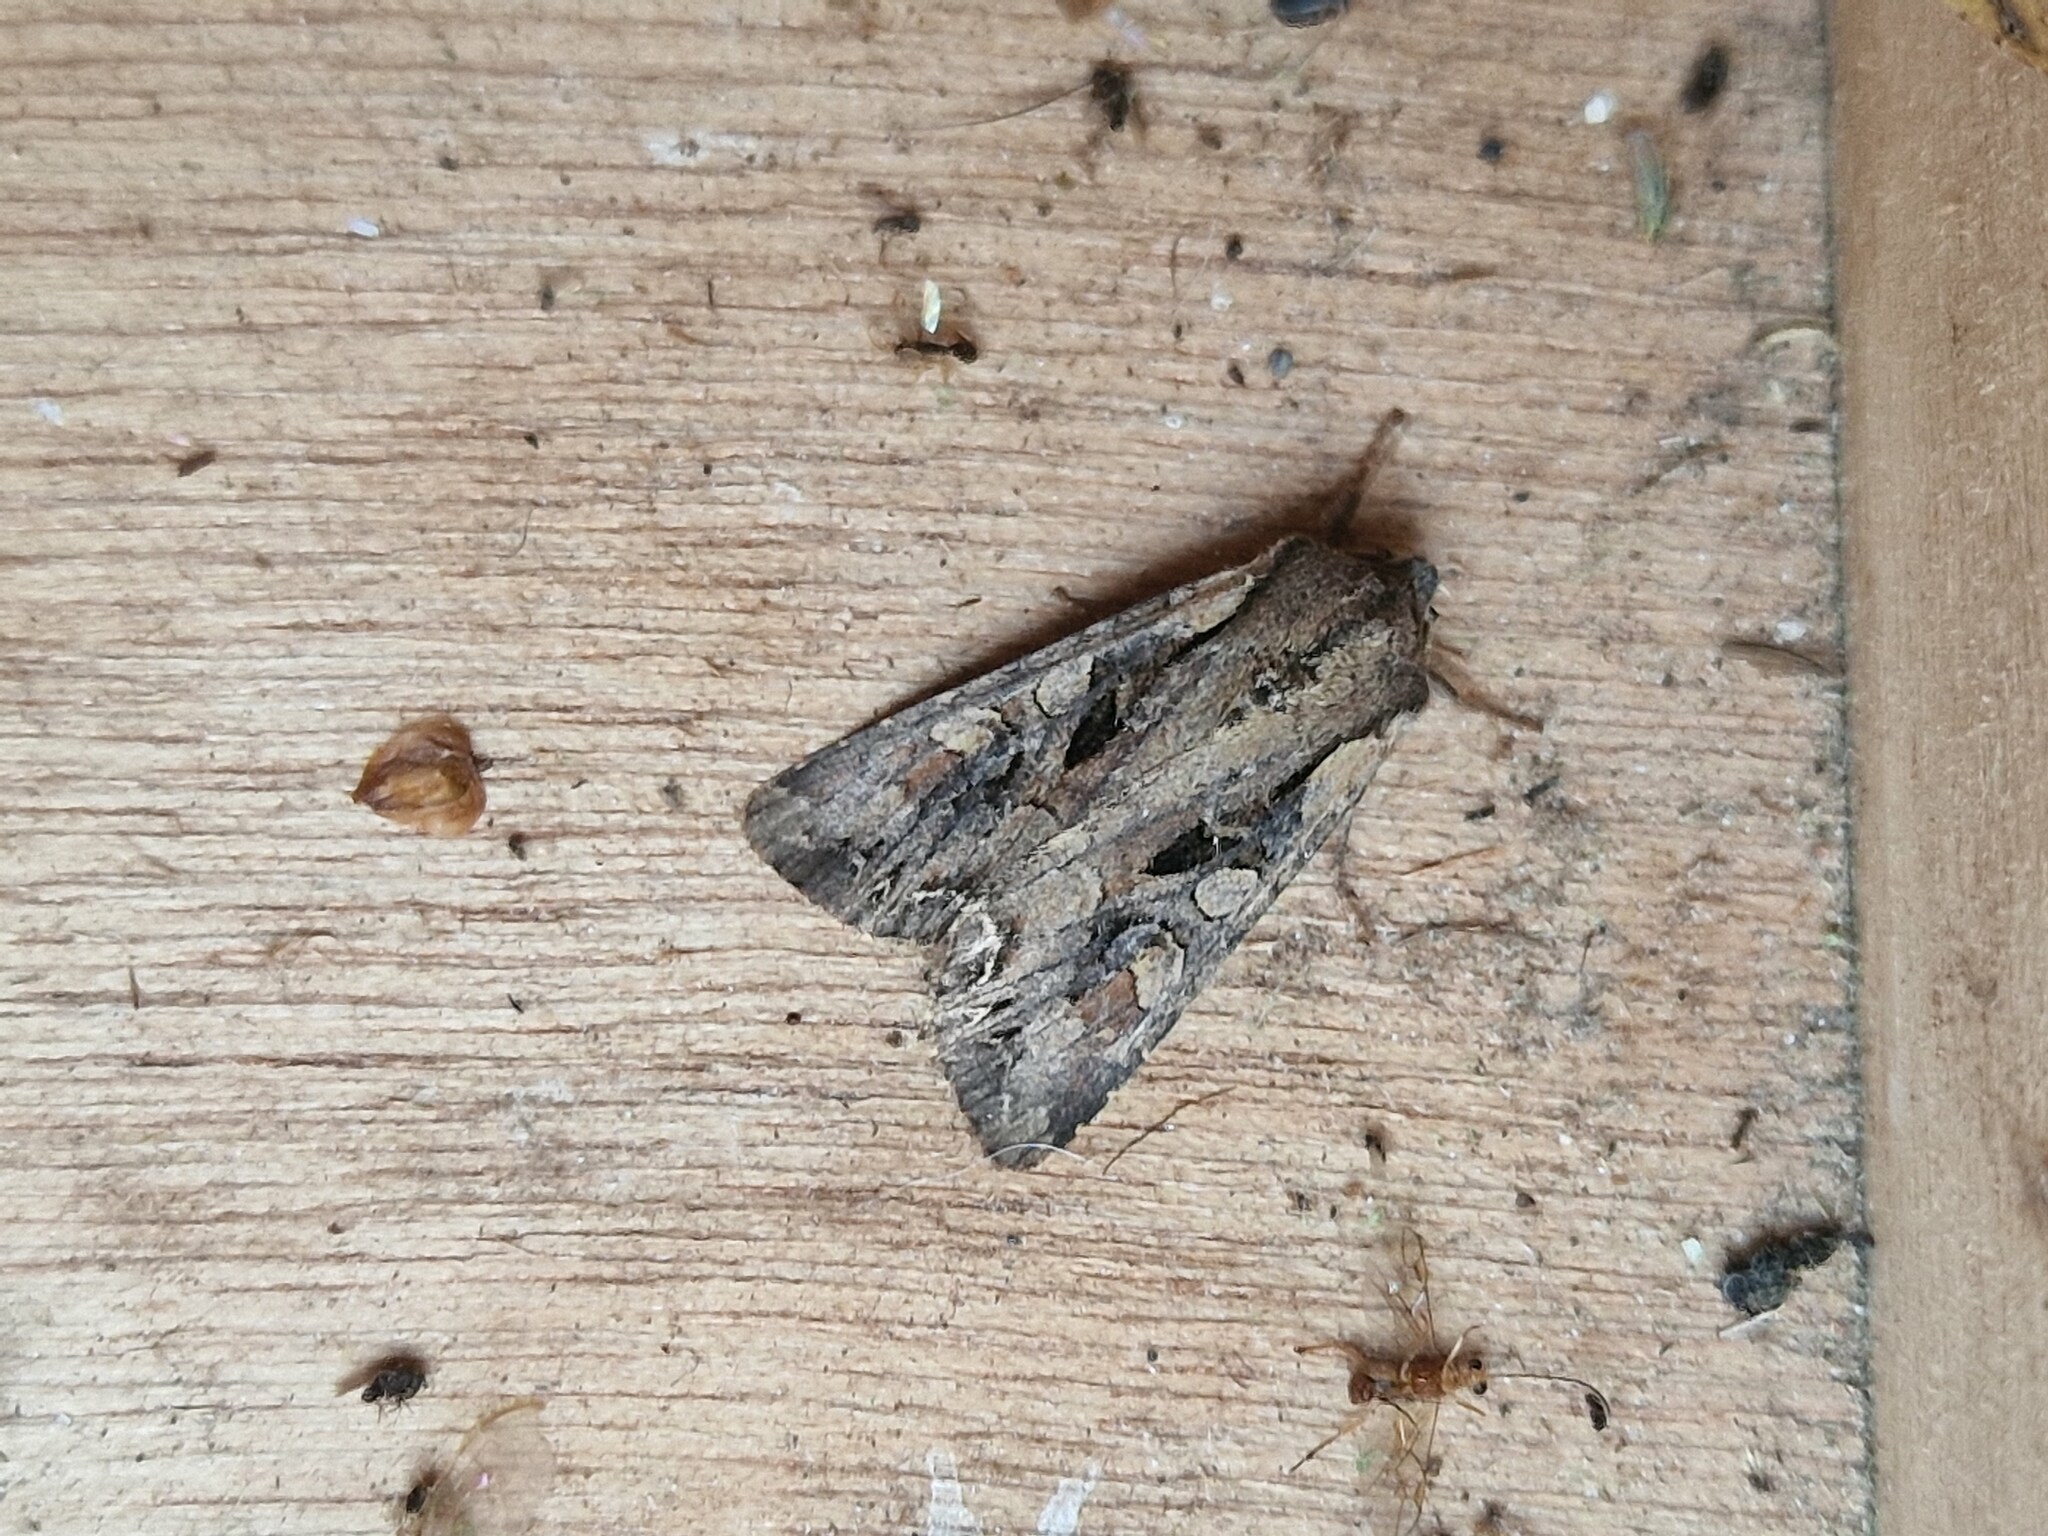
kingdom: Animalia
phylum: Arthropoda
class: Insecta
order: Lepidoptera
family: Noctuidae
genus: Lacanobia
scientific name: Lacanobia suasa
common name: Dog's tooth
